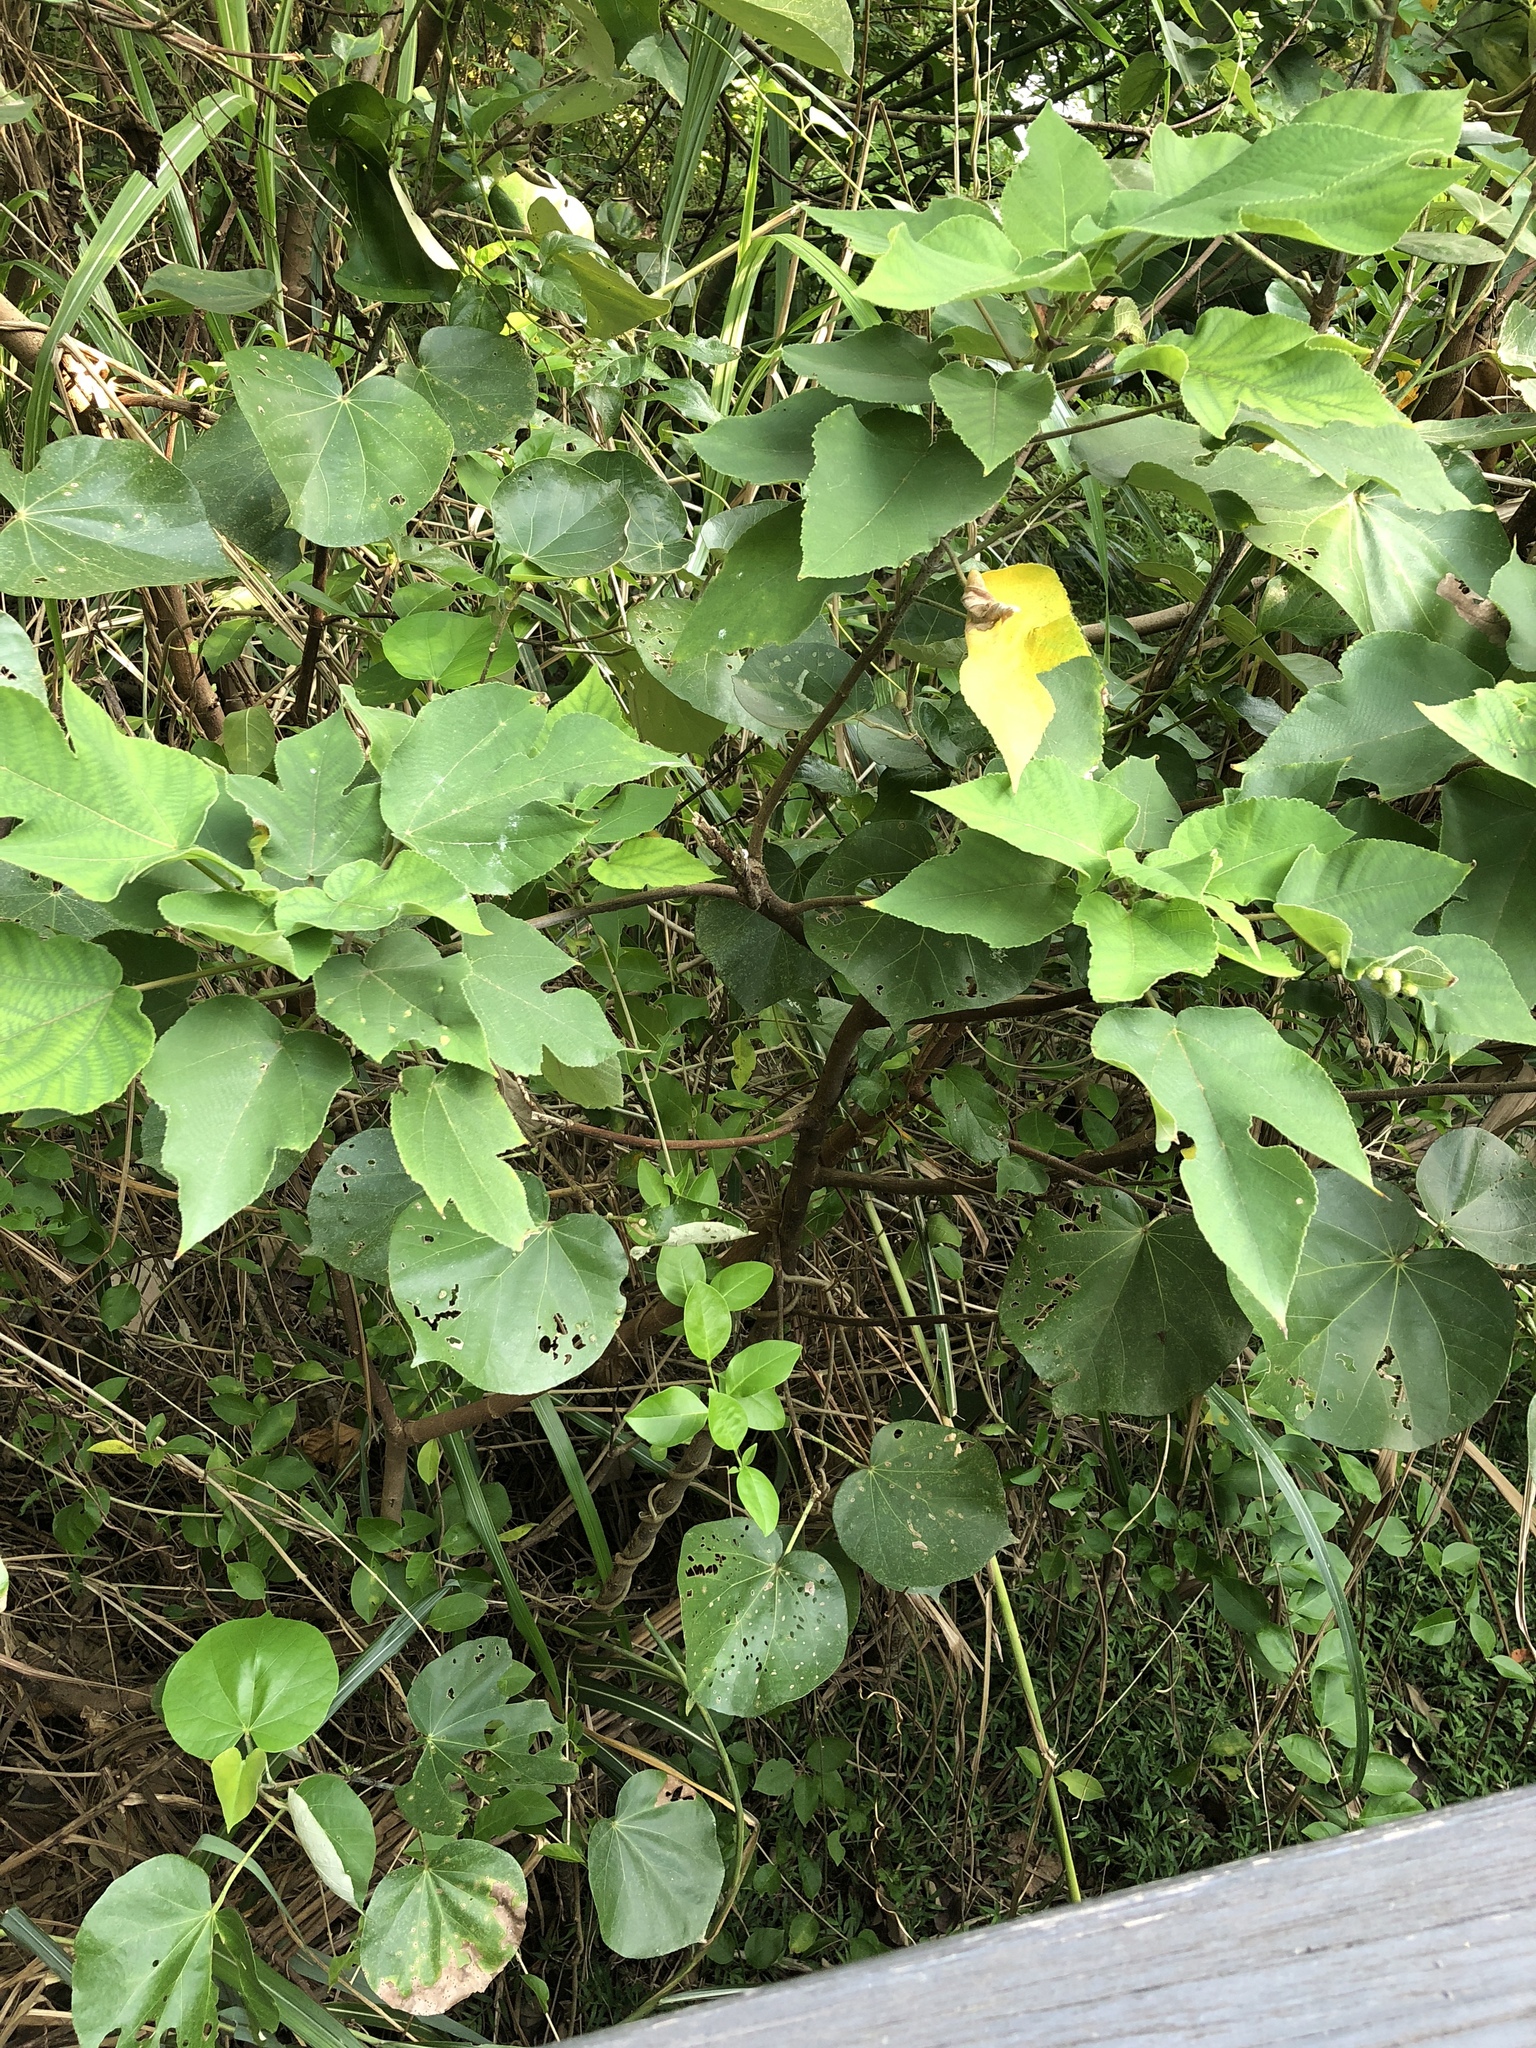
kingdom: Plantae
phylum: Tracheophyta
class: Magnoliopsida
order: Rosales
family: Moraceae
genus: Broussonetia
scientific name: Broussonetia papyrifera
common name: Paper mulberry
